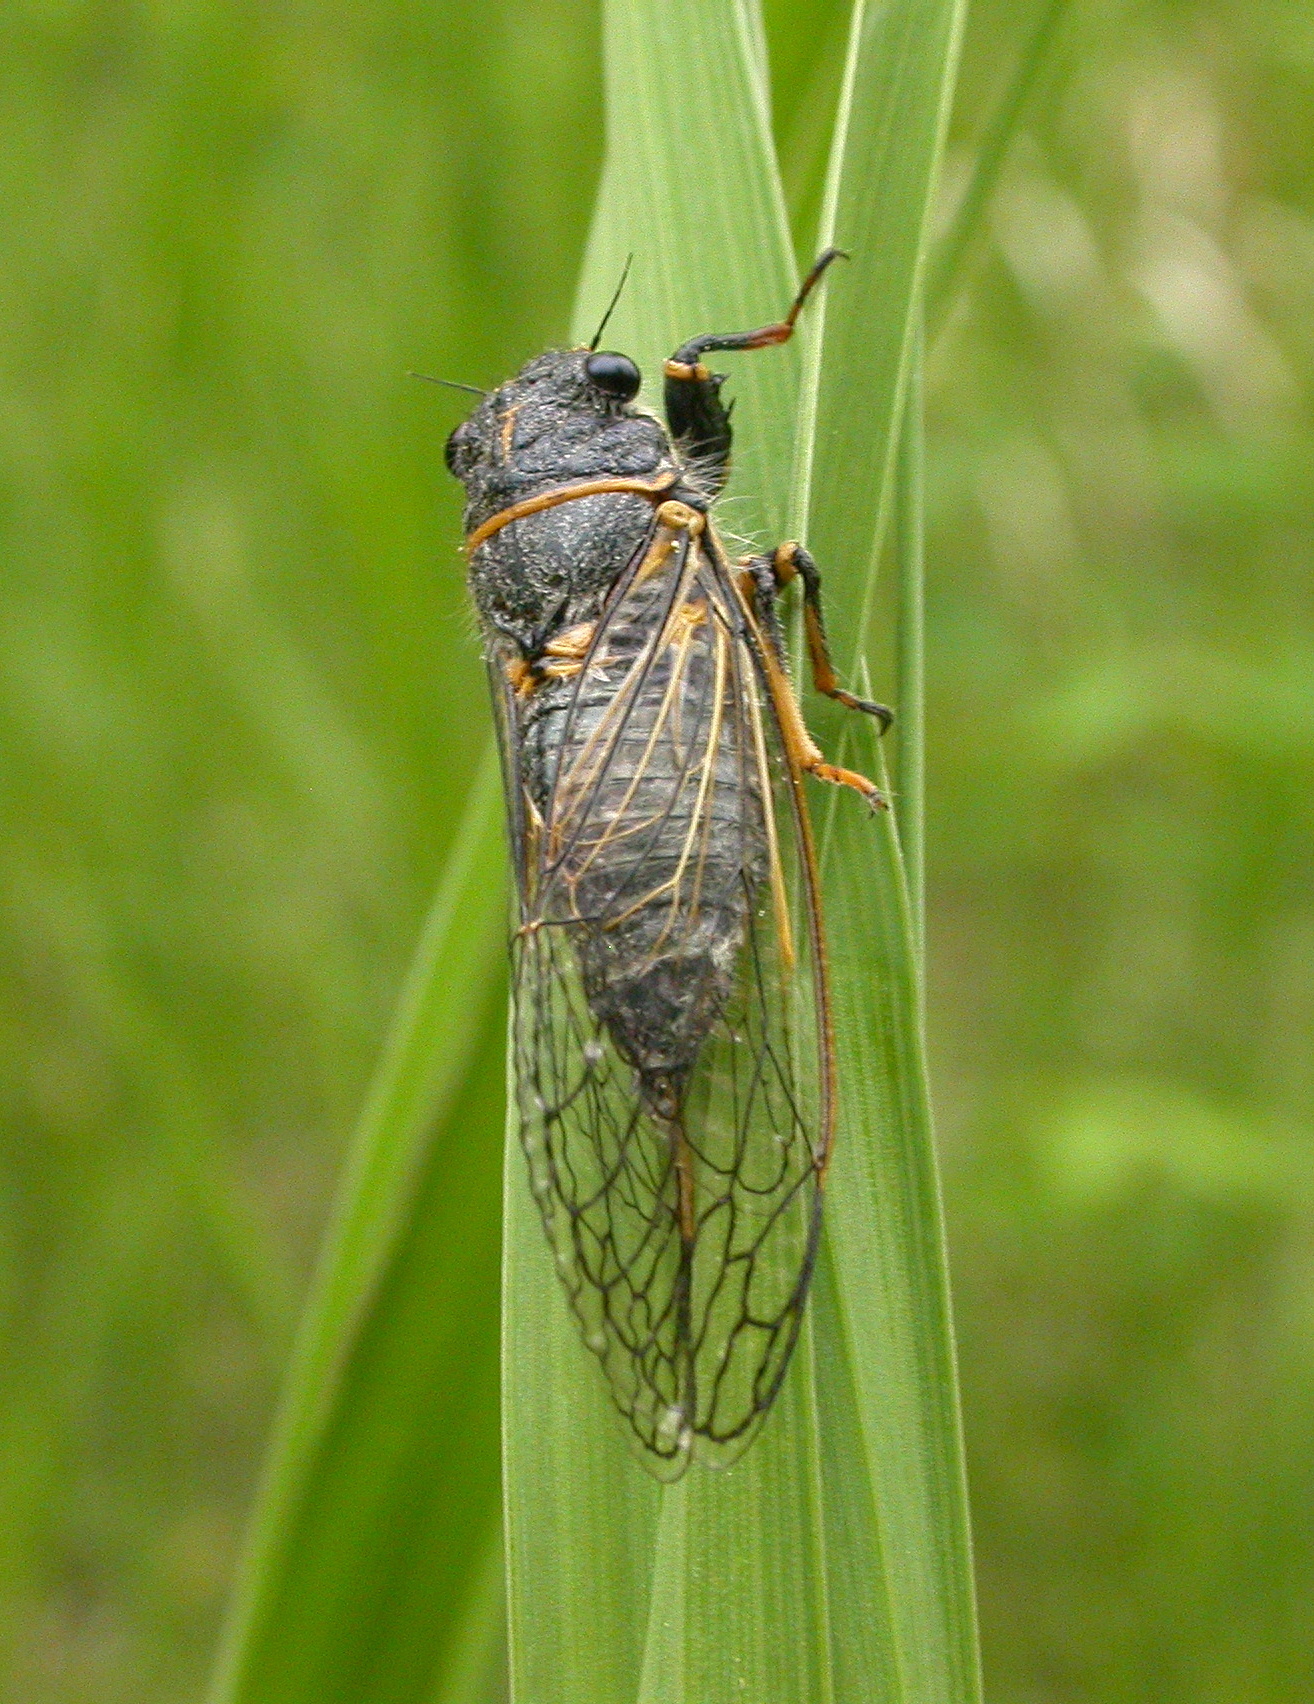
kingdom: Animalia
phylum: Arthropoda
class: Insecta
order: Hemiptera
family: Cicadidae
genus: Platypedia
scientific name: Platypedia putnami
